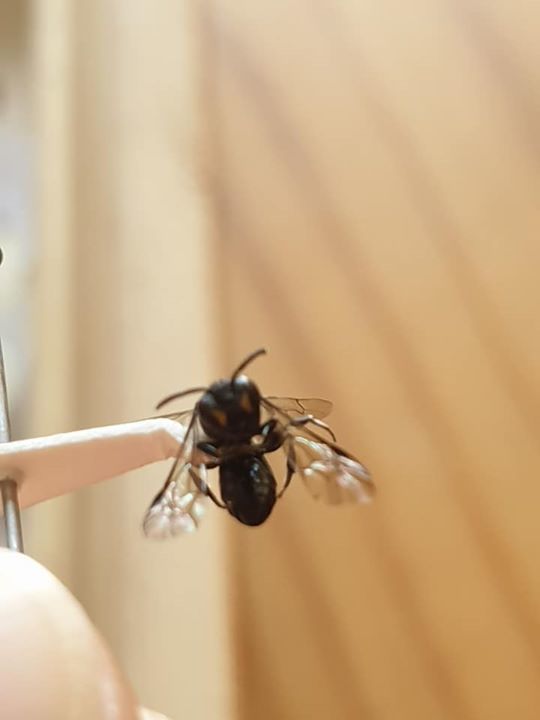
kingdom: Animalia
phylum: Arthropoda
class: Insecta
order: Hymenoptera
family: Colletidae
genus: Hylaeus
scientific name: Hylaeus relegatus
